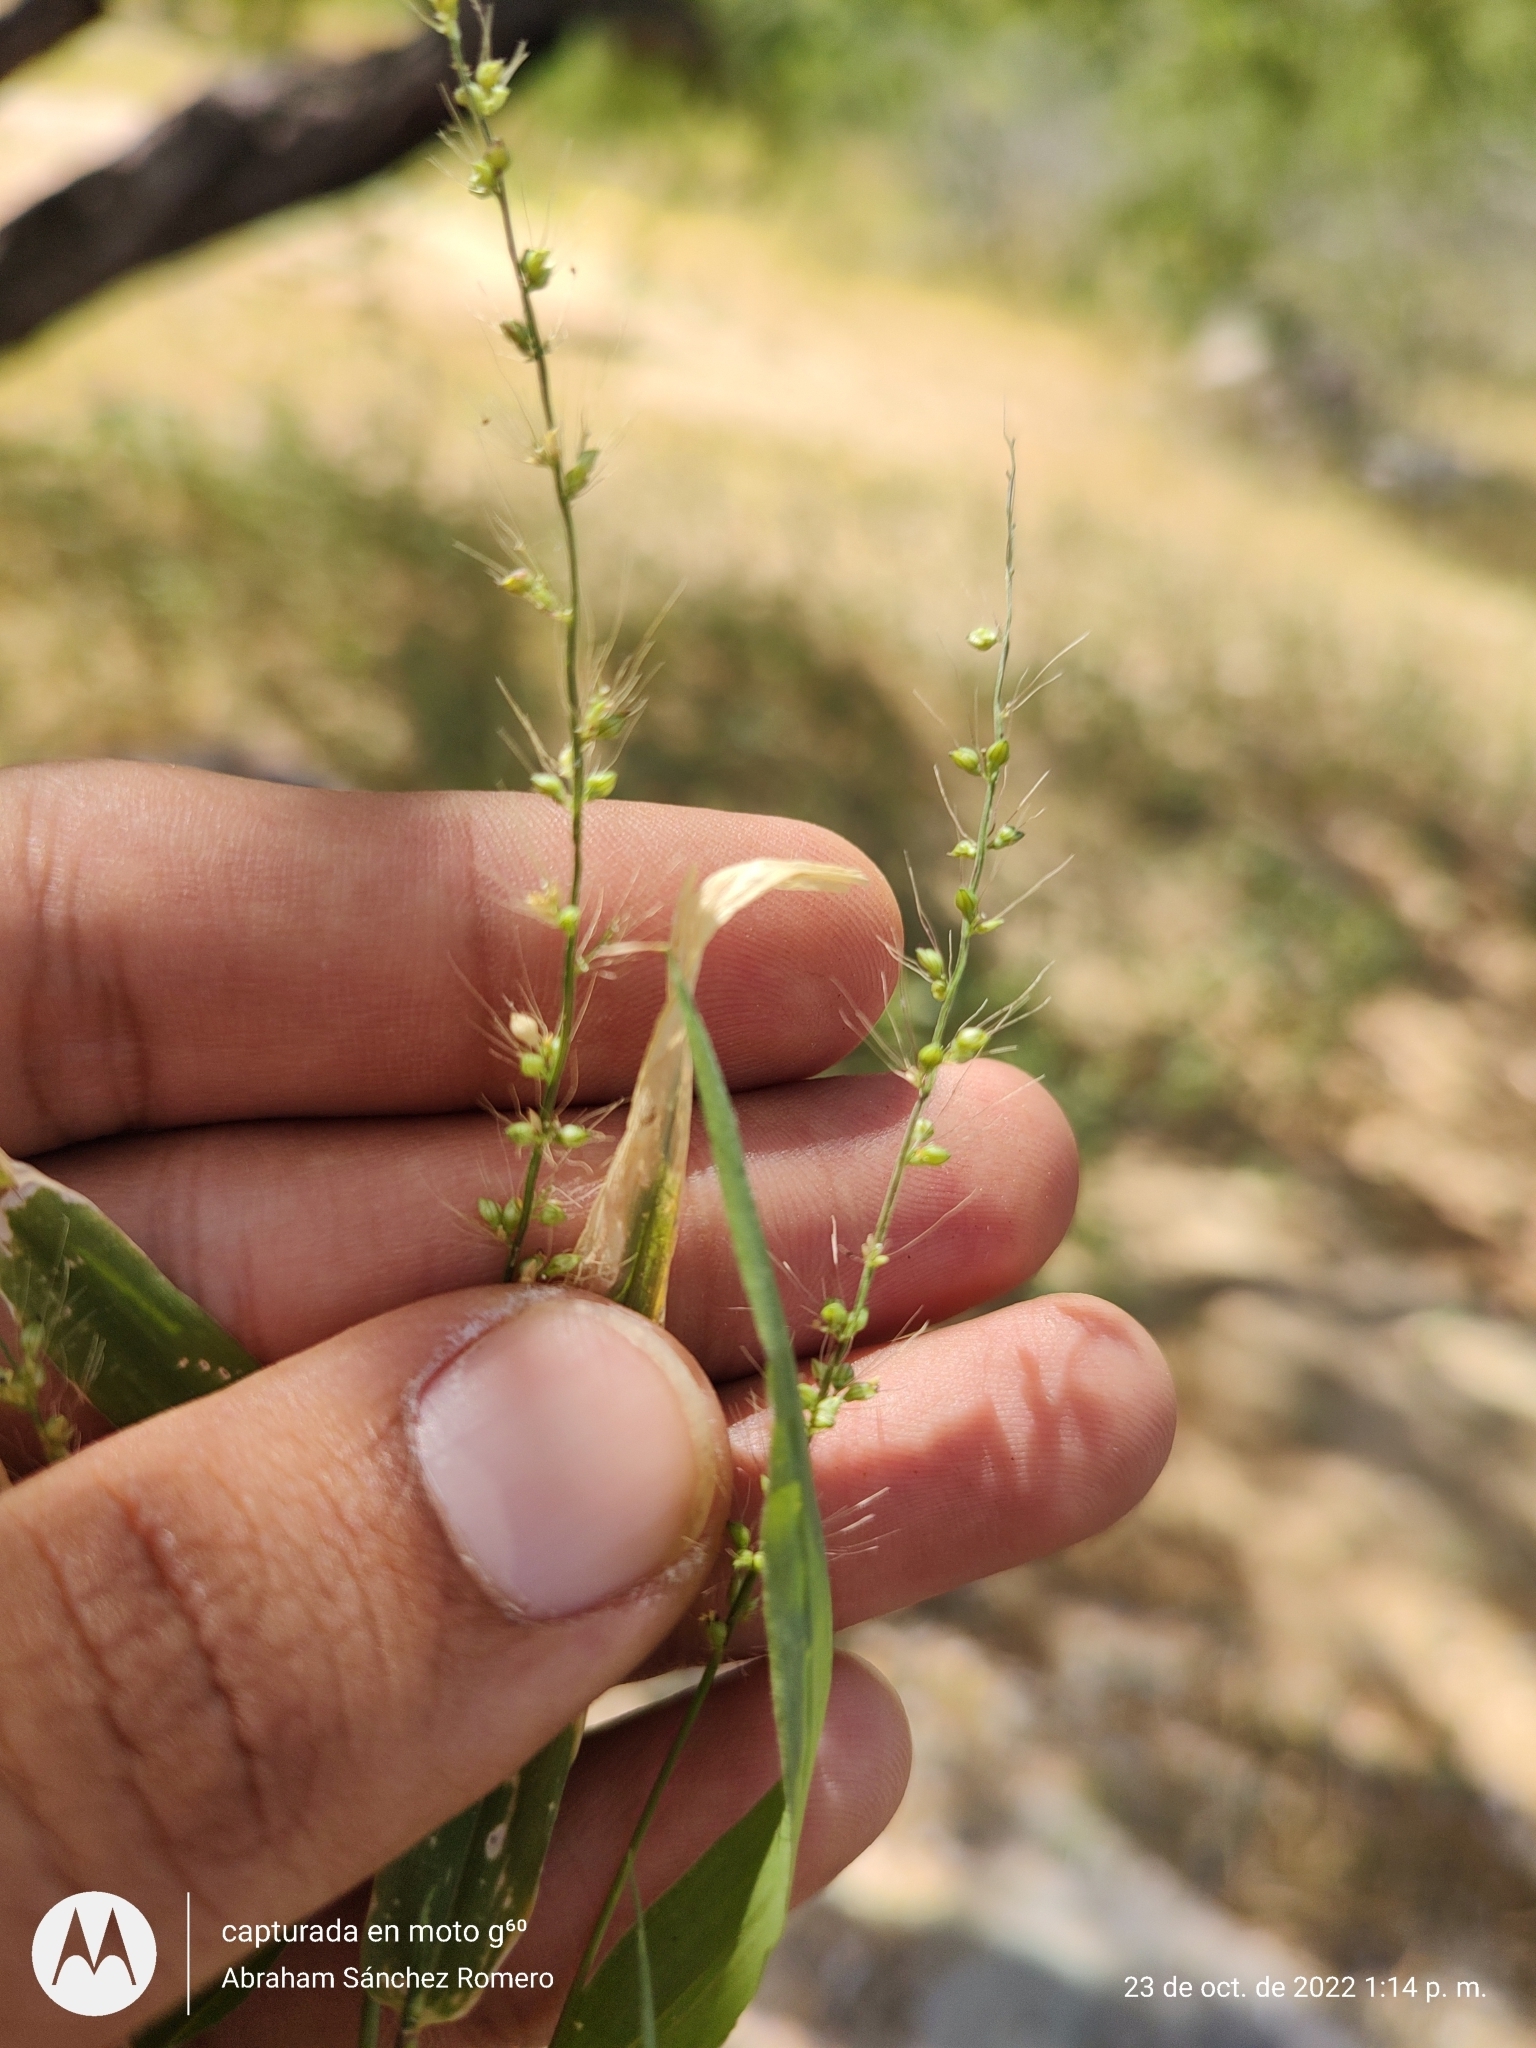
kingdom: Plantae
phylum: Tracheophyta
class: Liliopsida
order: Poales
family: Poaceae
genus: Setaria
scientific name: Setaria liebmannii
